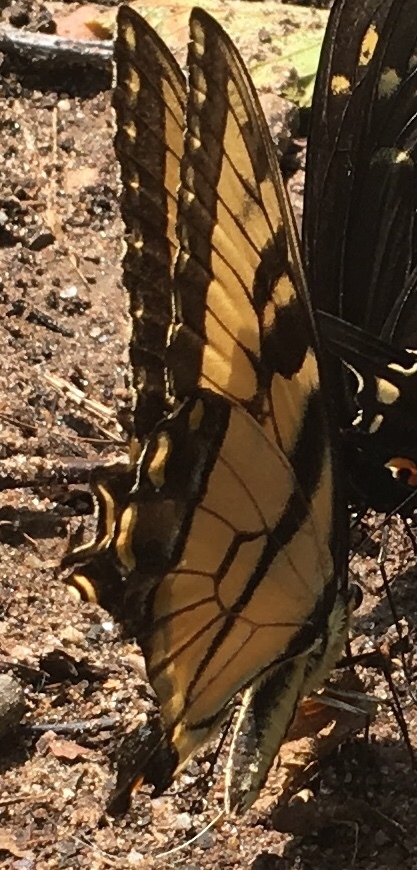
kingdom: Animalia
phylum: Arthropoda
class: Insecta
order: Lepidoptera
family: Papilionidae
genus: Papilio
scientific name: Papilio glaucus
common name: Tiger swallowtail
